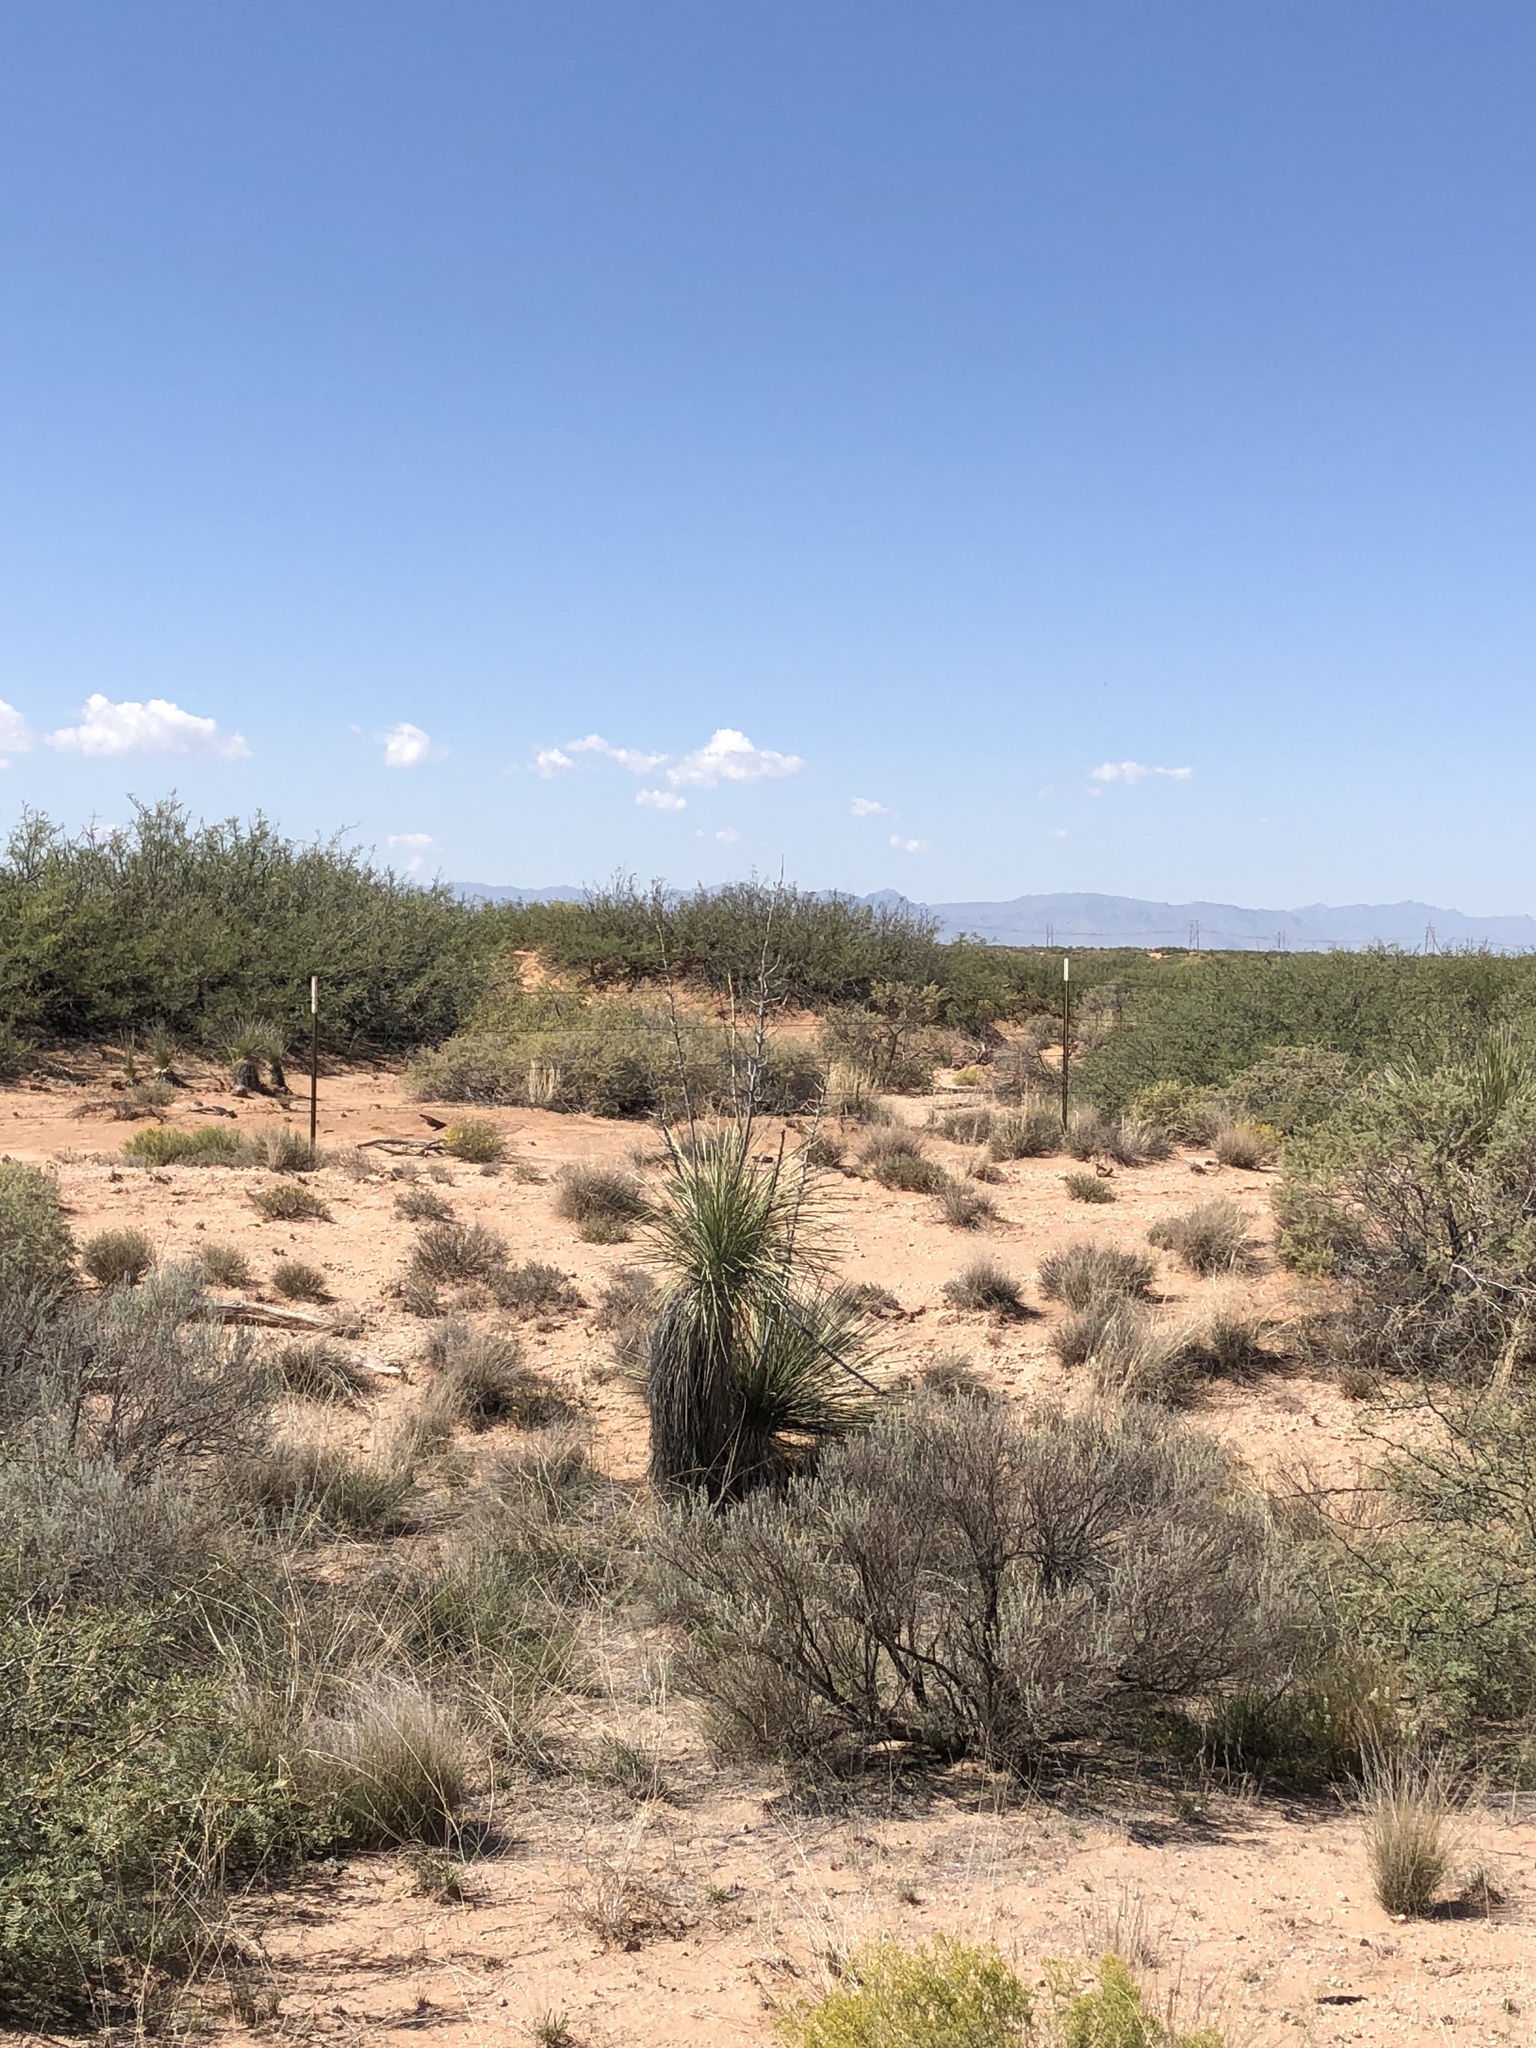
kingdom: Plantae
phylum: Tracheophyta
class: Liliopsida
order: Asparagales
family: Asparagaceae
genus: Yucca
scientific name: Yucca elata
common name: Palmella
